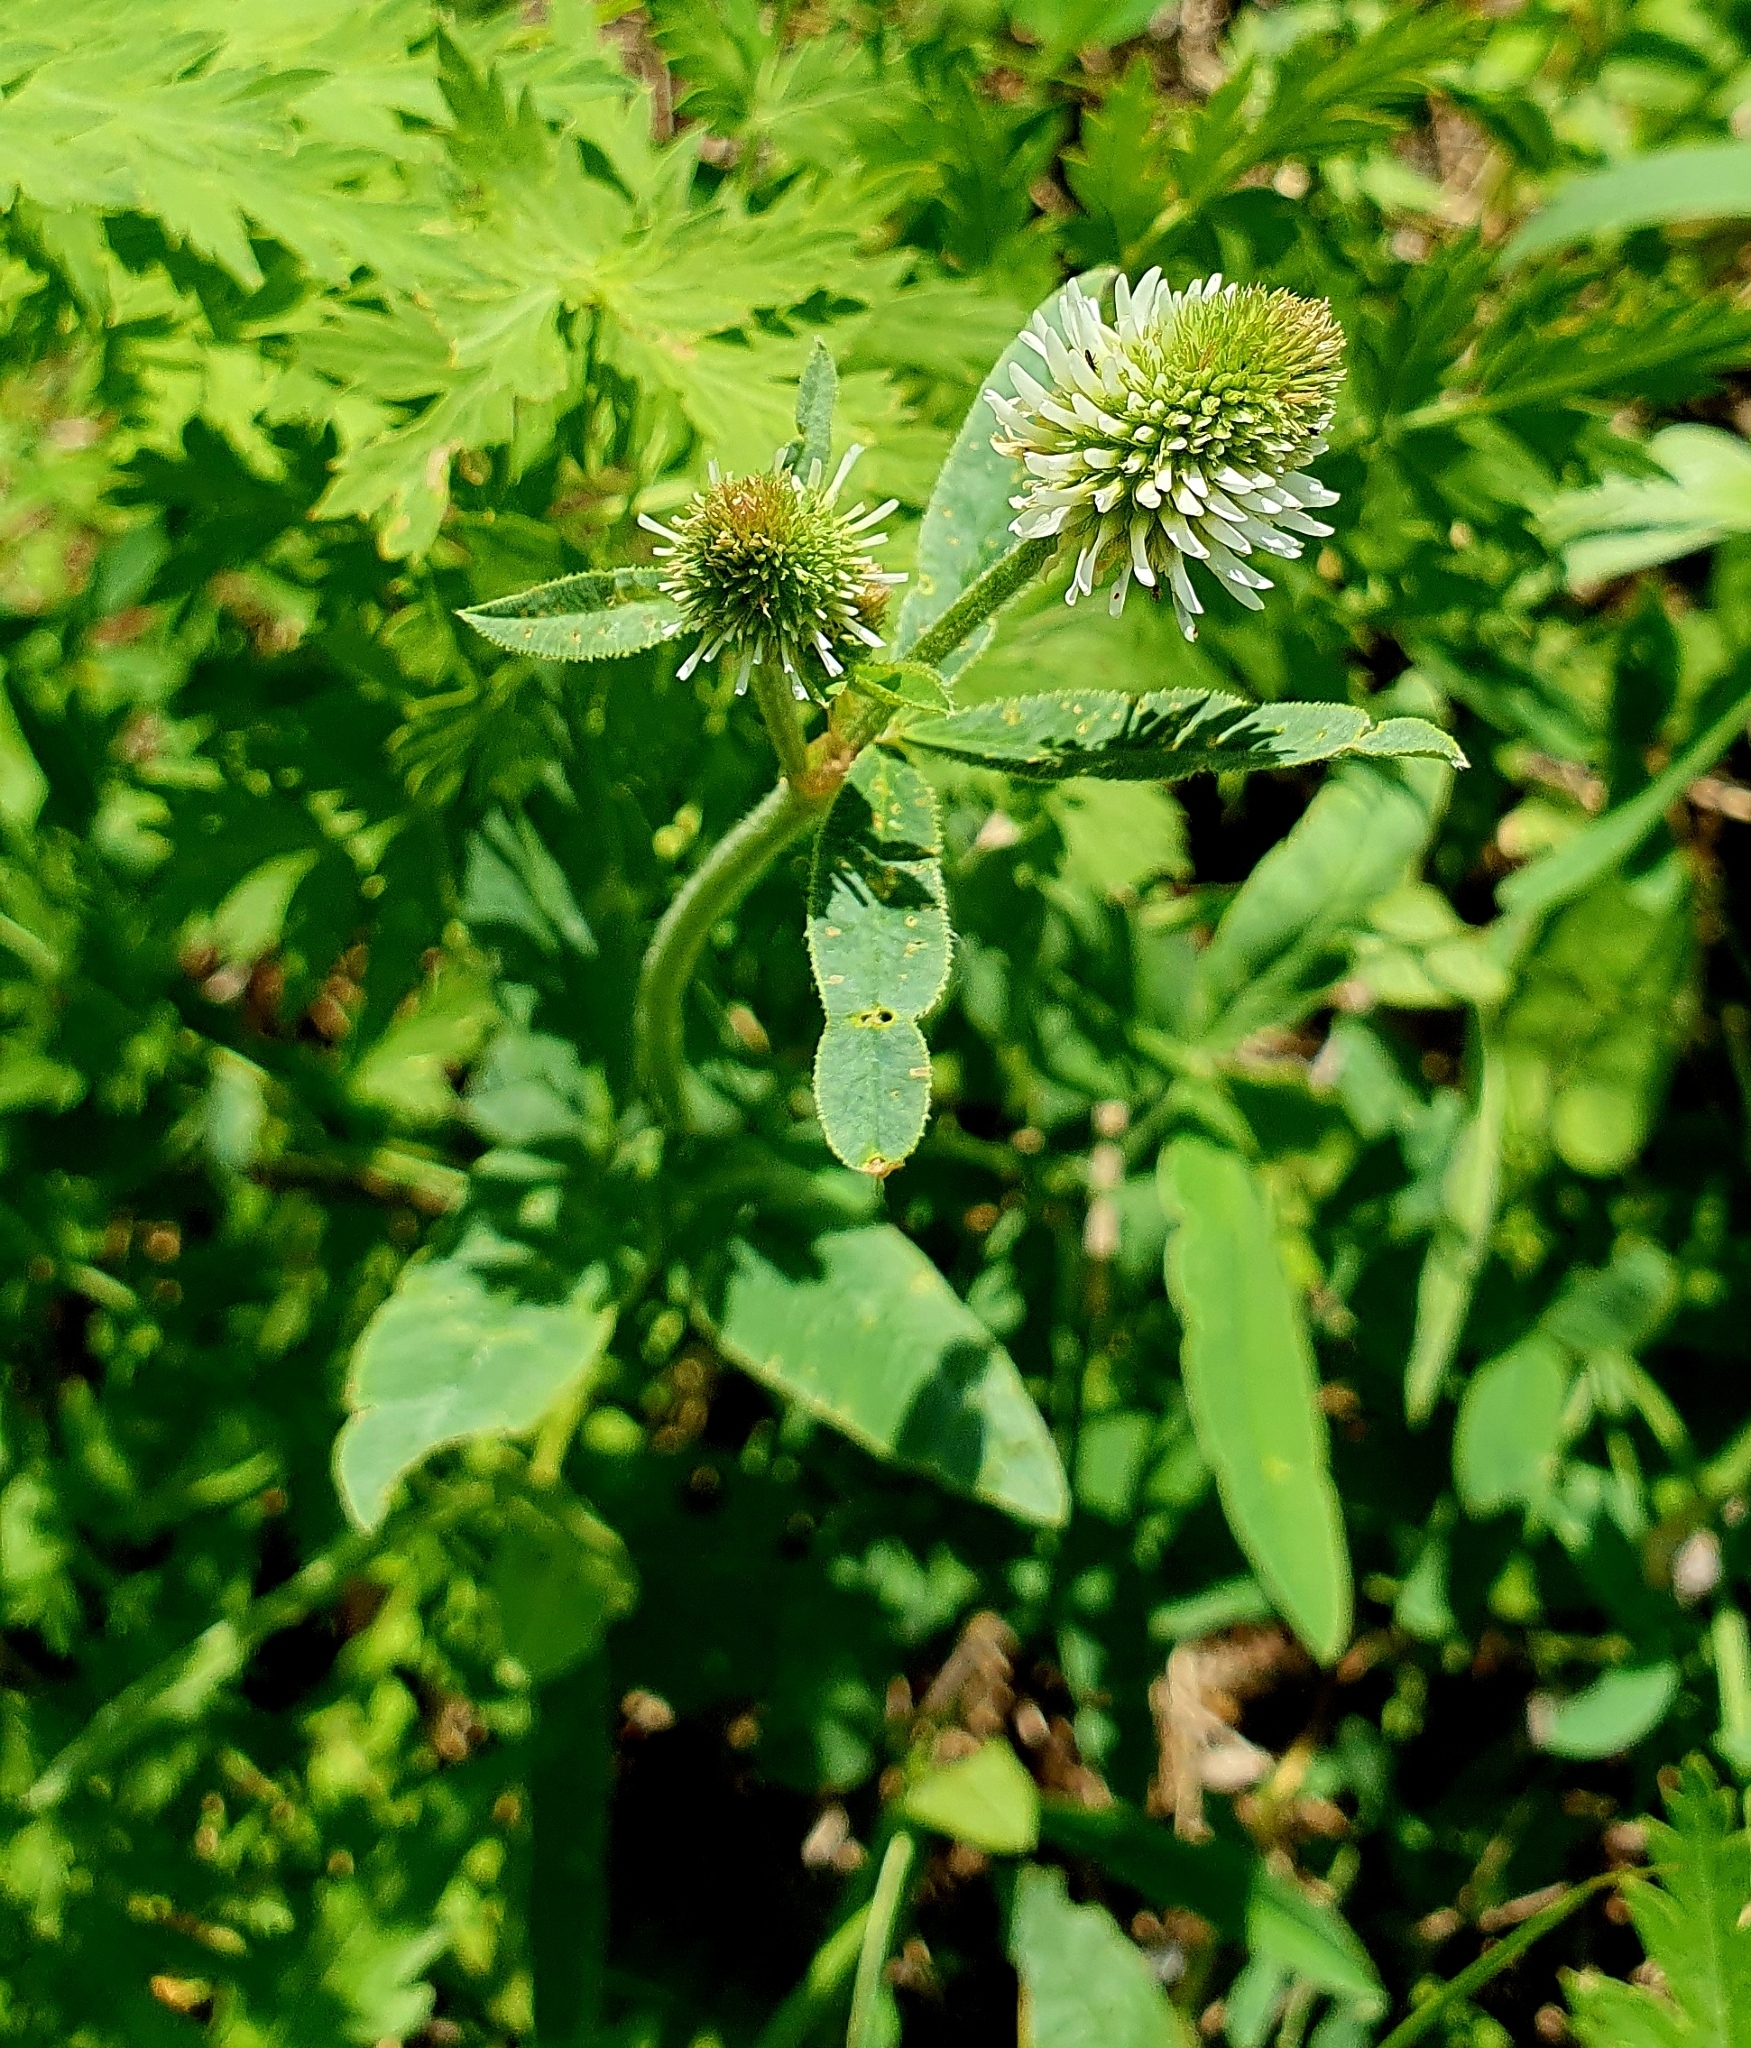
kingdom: Plantae
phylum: Tracheophyta
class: Magnoliopsida
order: Fabales
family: Fabaceae
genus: Trifolium
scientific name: Trifolium montanum
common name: Mountain clover
